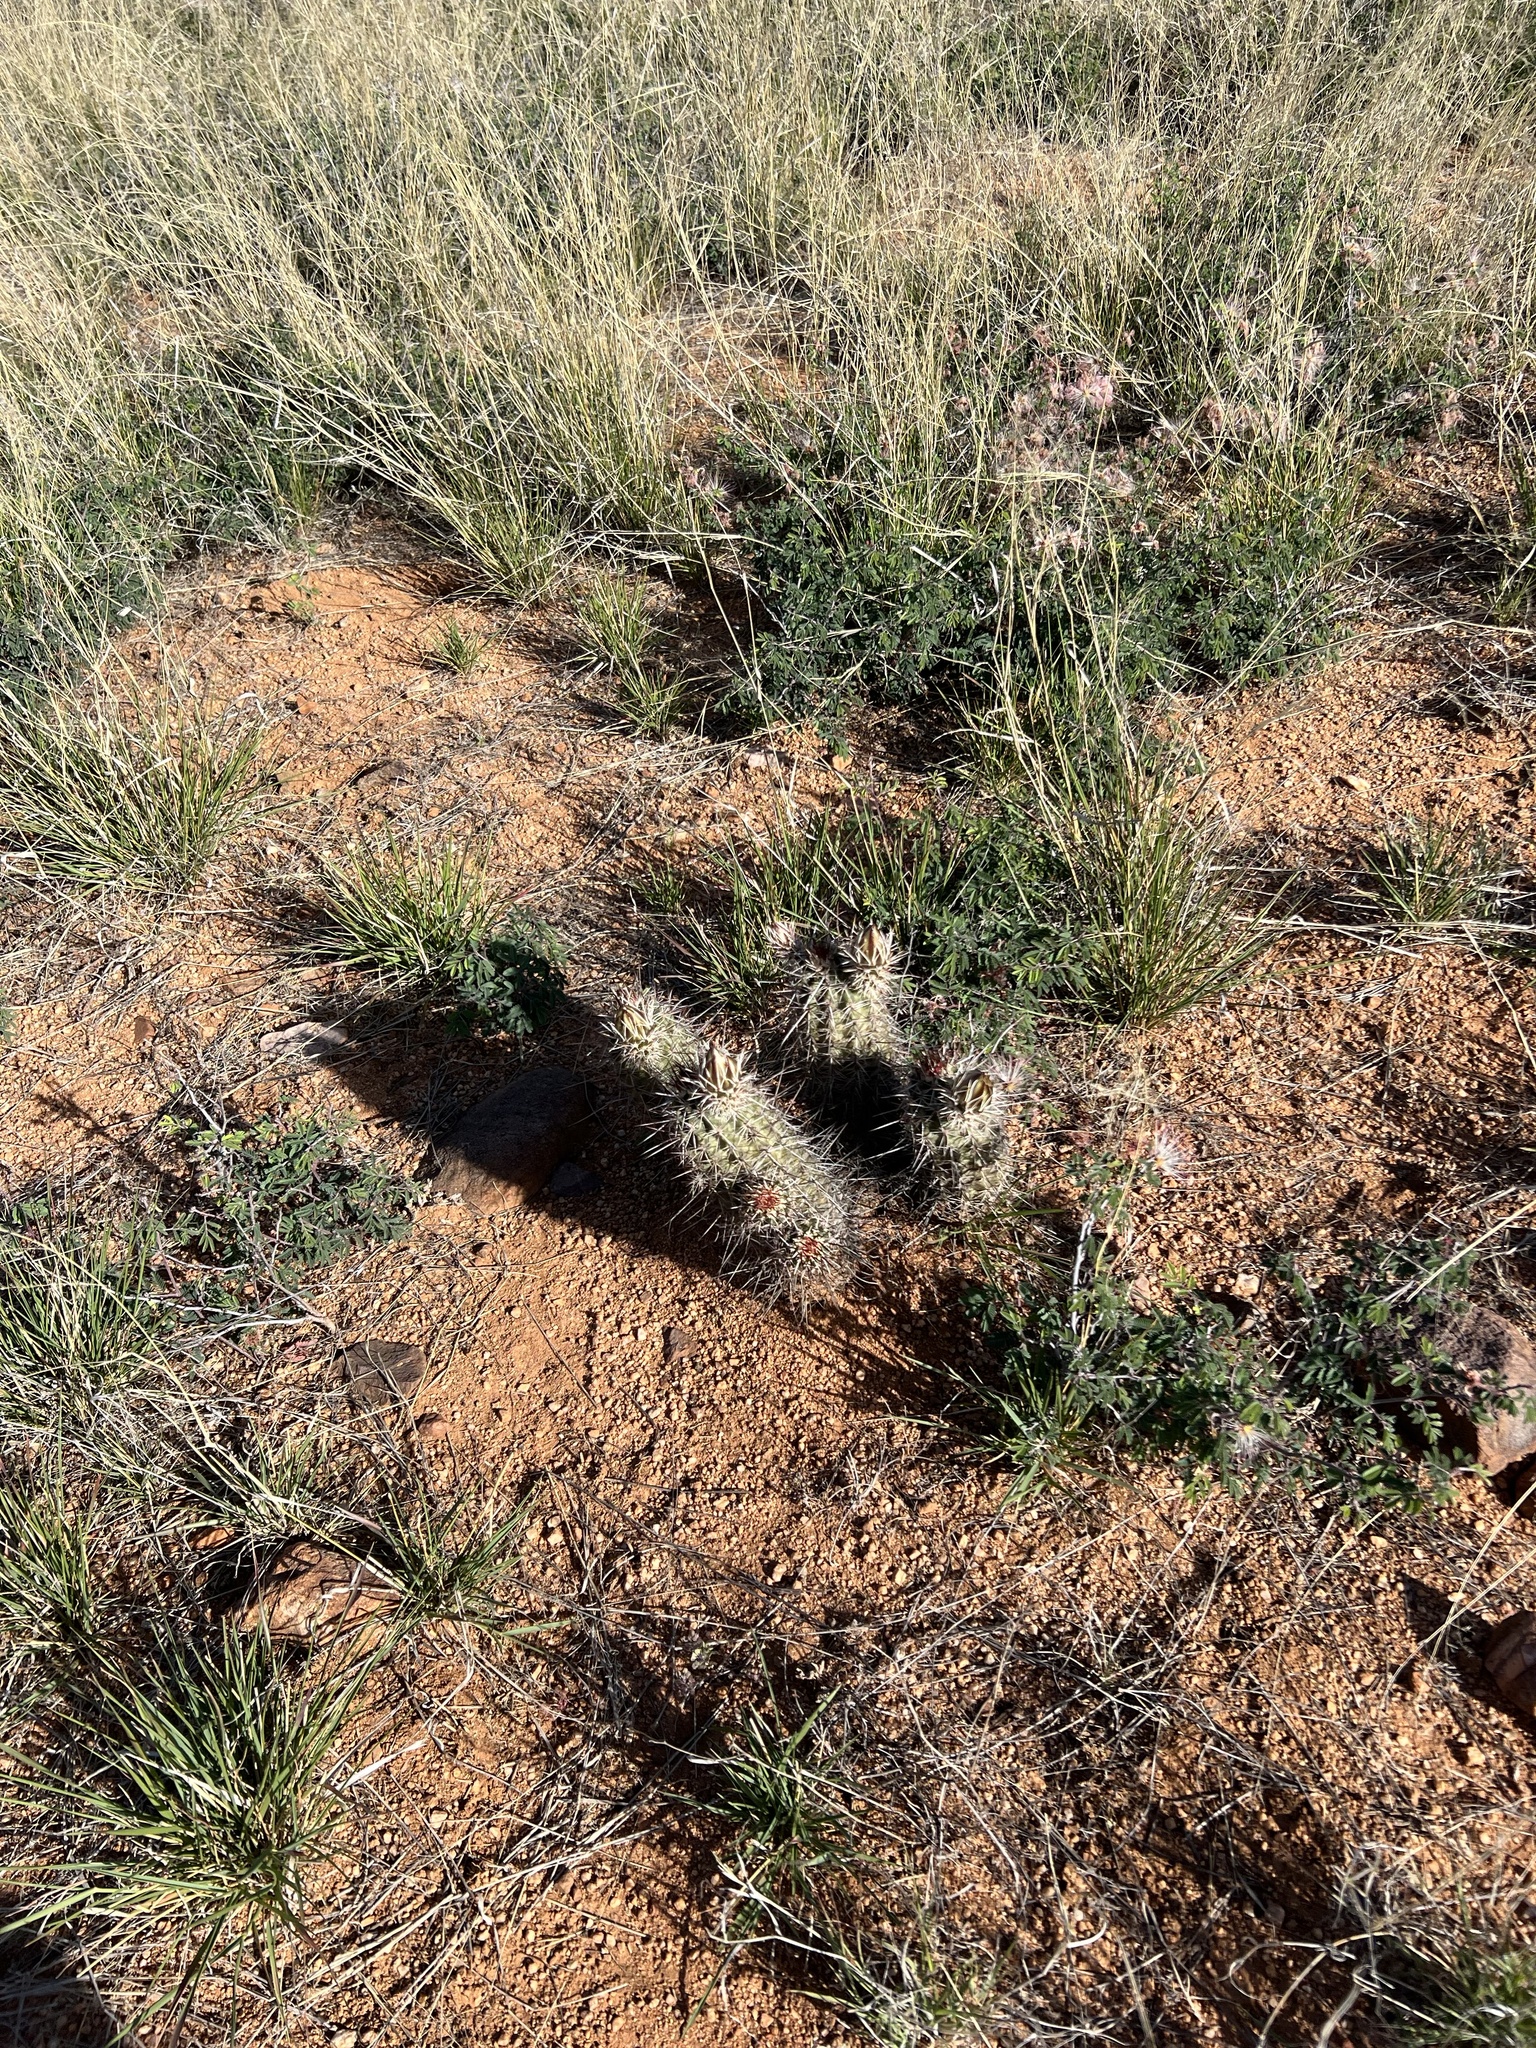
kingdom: Plantae
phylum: Tracheophyta
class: Magnoliopsida
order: Caryophyllales
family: Cactaceae
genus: Echinocereus
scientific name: Echinocereus fasciculatus
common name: Bundle hedgehog
